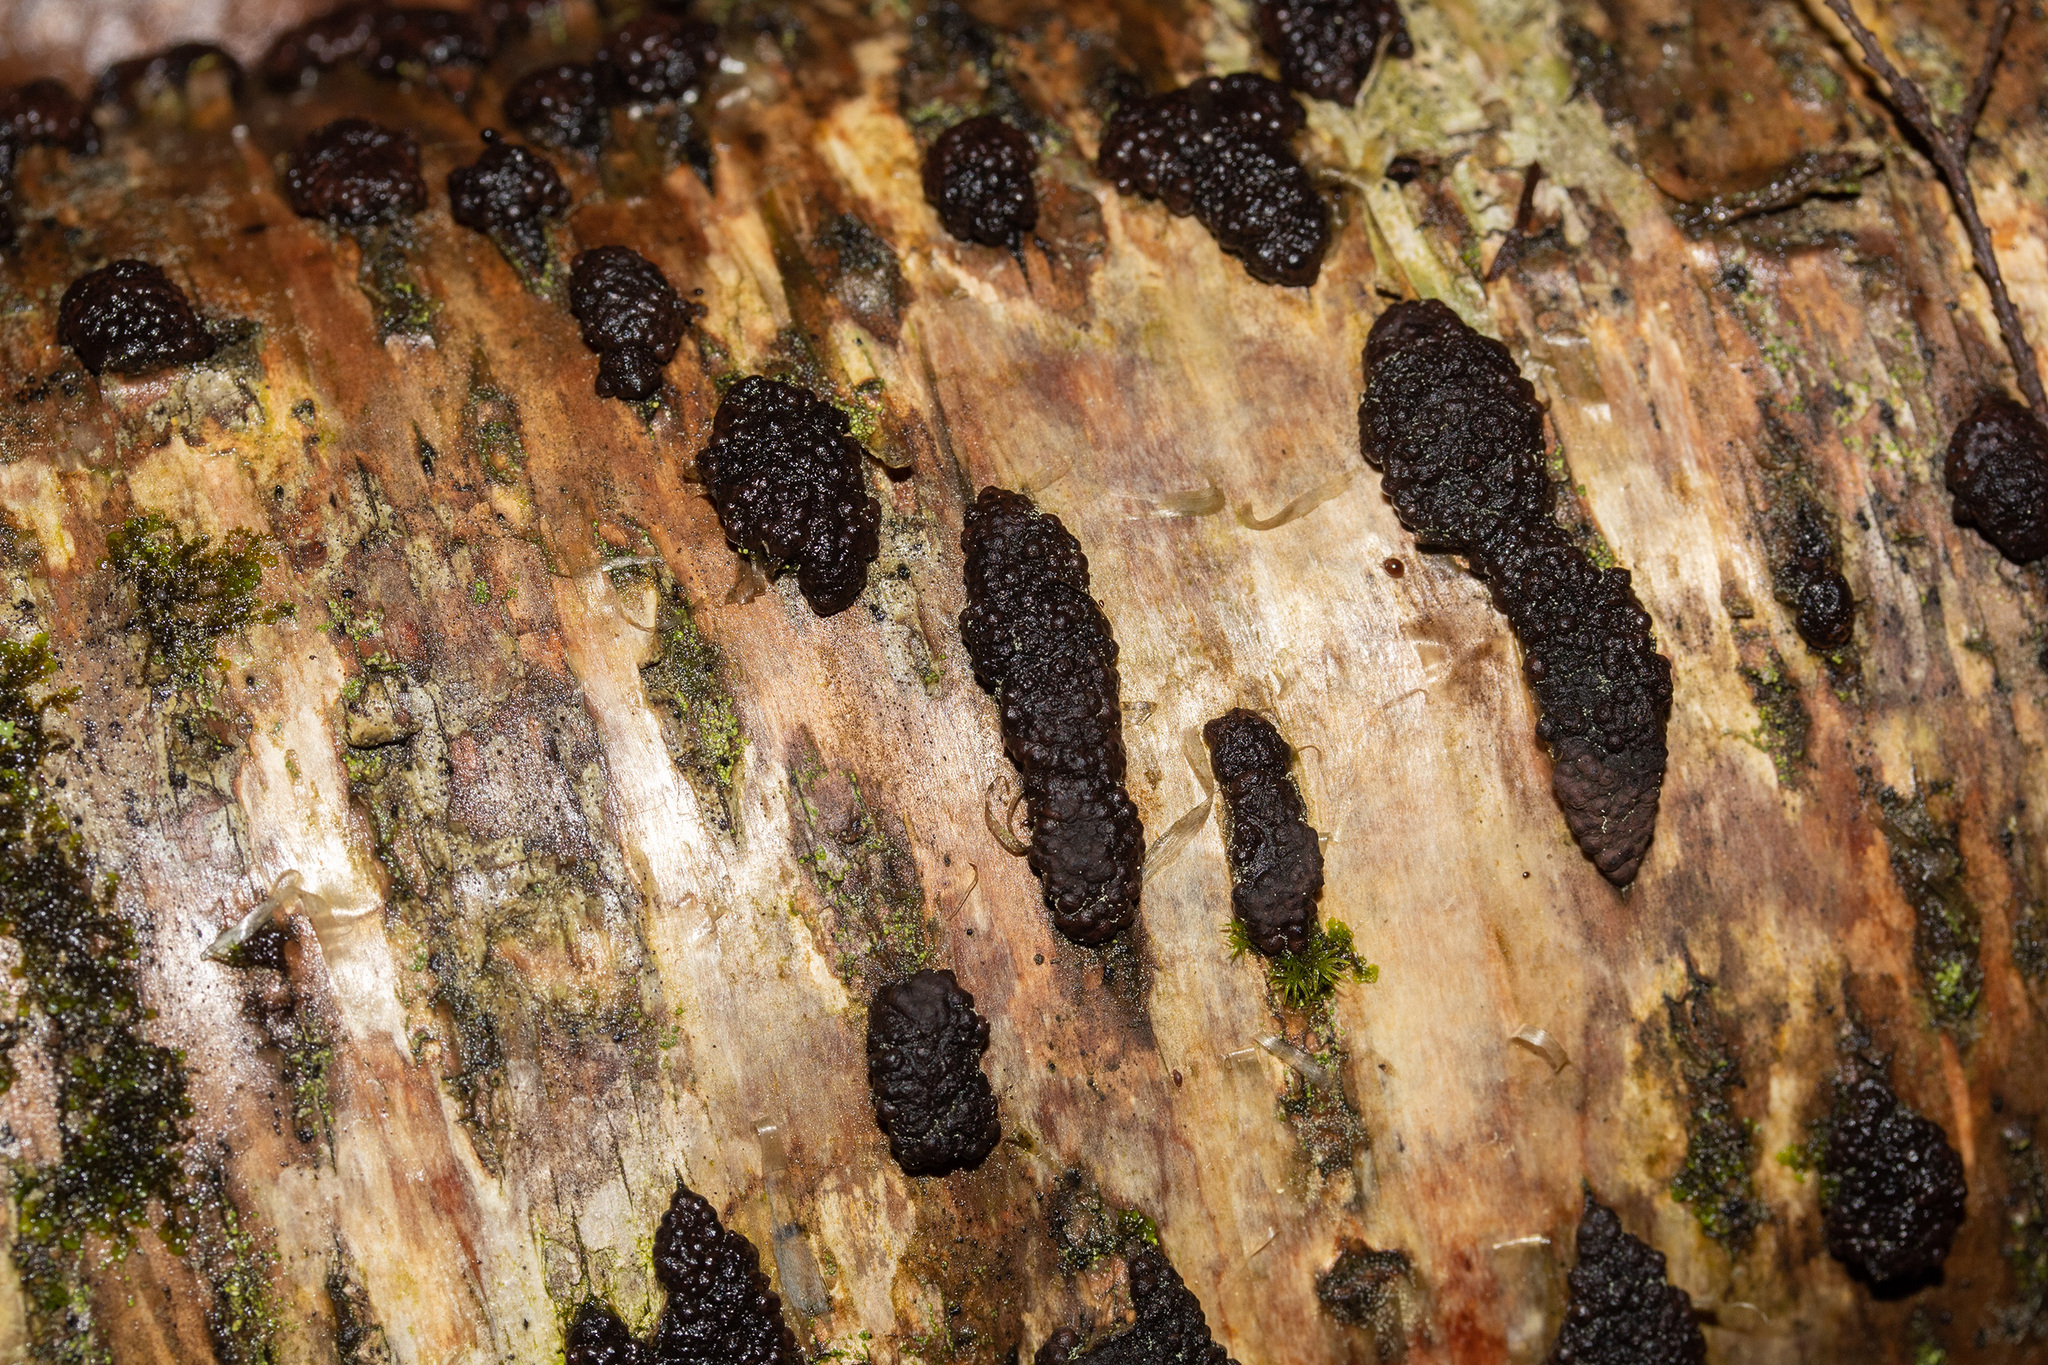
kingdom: Fungi
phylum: Ascomycota
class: Sordariomycetes
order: Xylariales
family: Hypoxylaceae
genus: Jackrogersella
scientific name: Jackrogersella multiformis
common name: Birch woodwart
